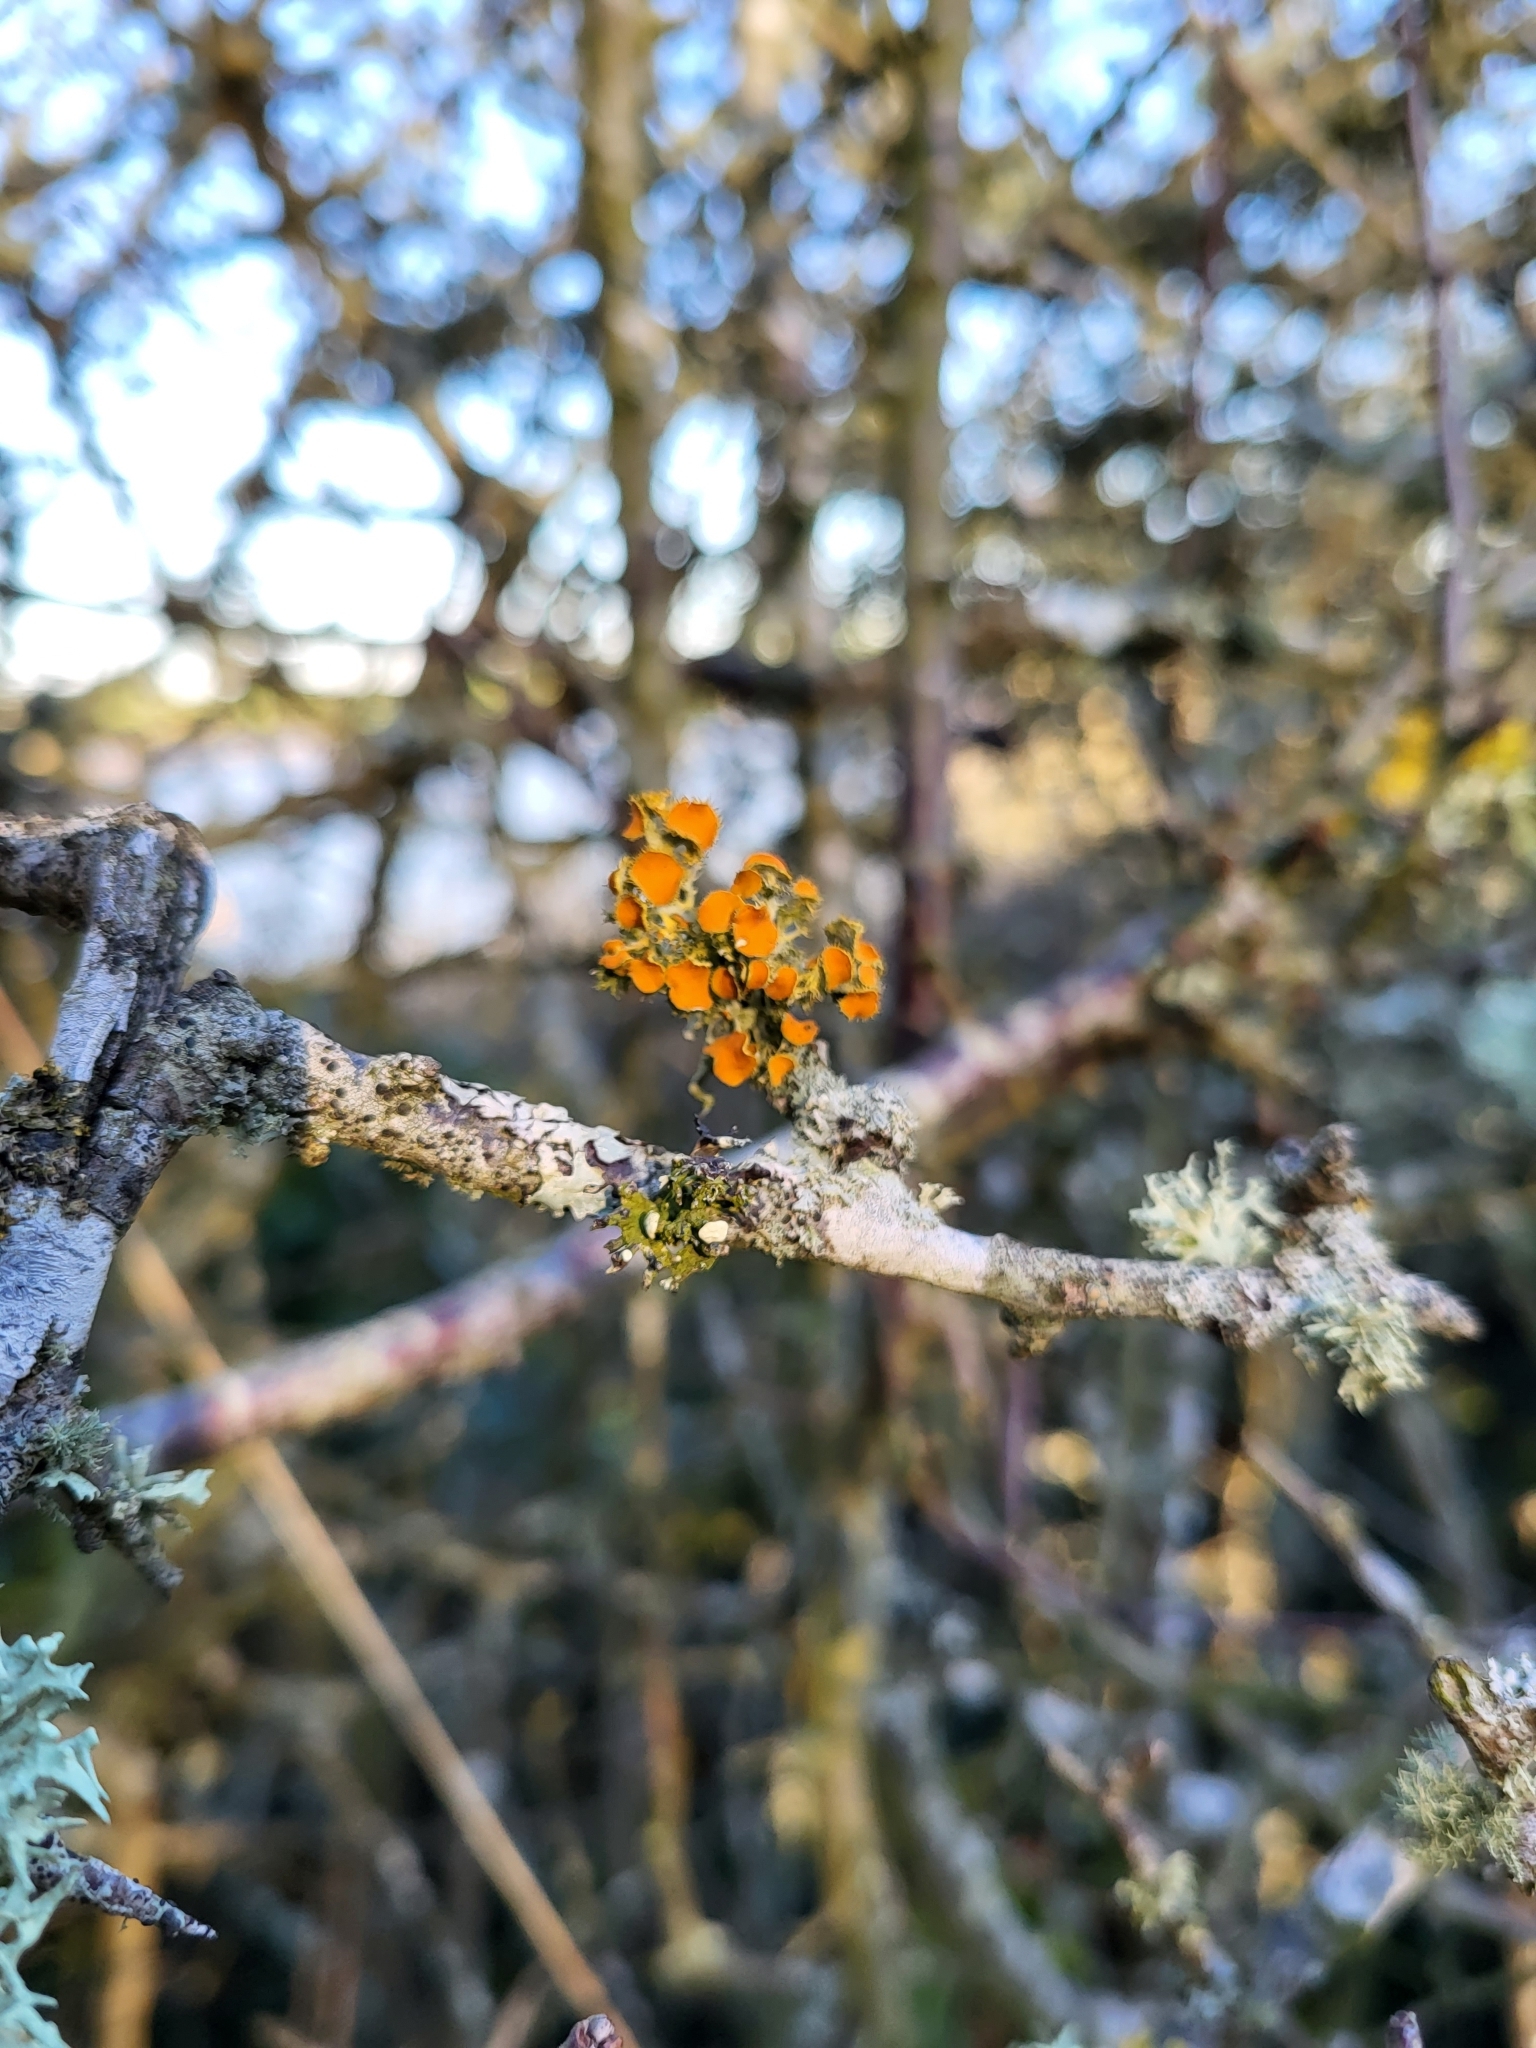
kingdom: Fungi
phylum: Ascomycota
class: Lecanoromycetes
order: Teloschistales
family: Teloschistaceae
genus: Niorma
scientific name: Niorma chrysophthalma
